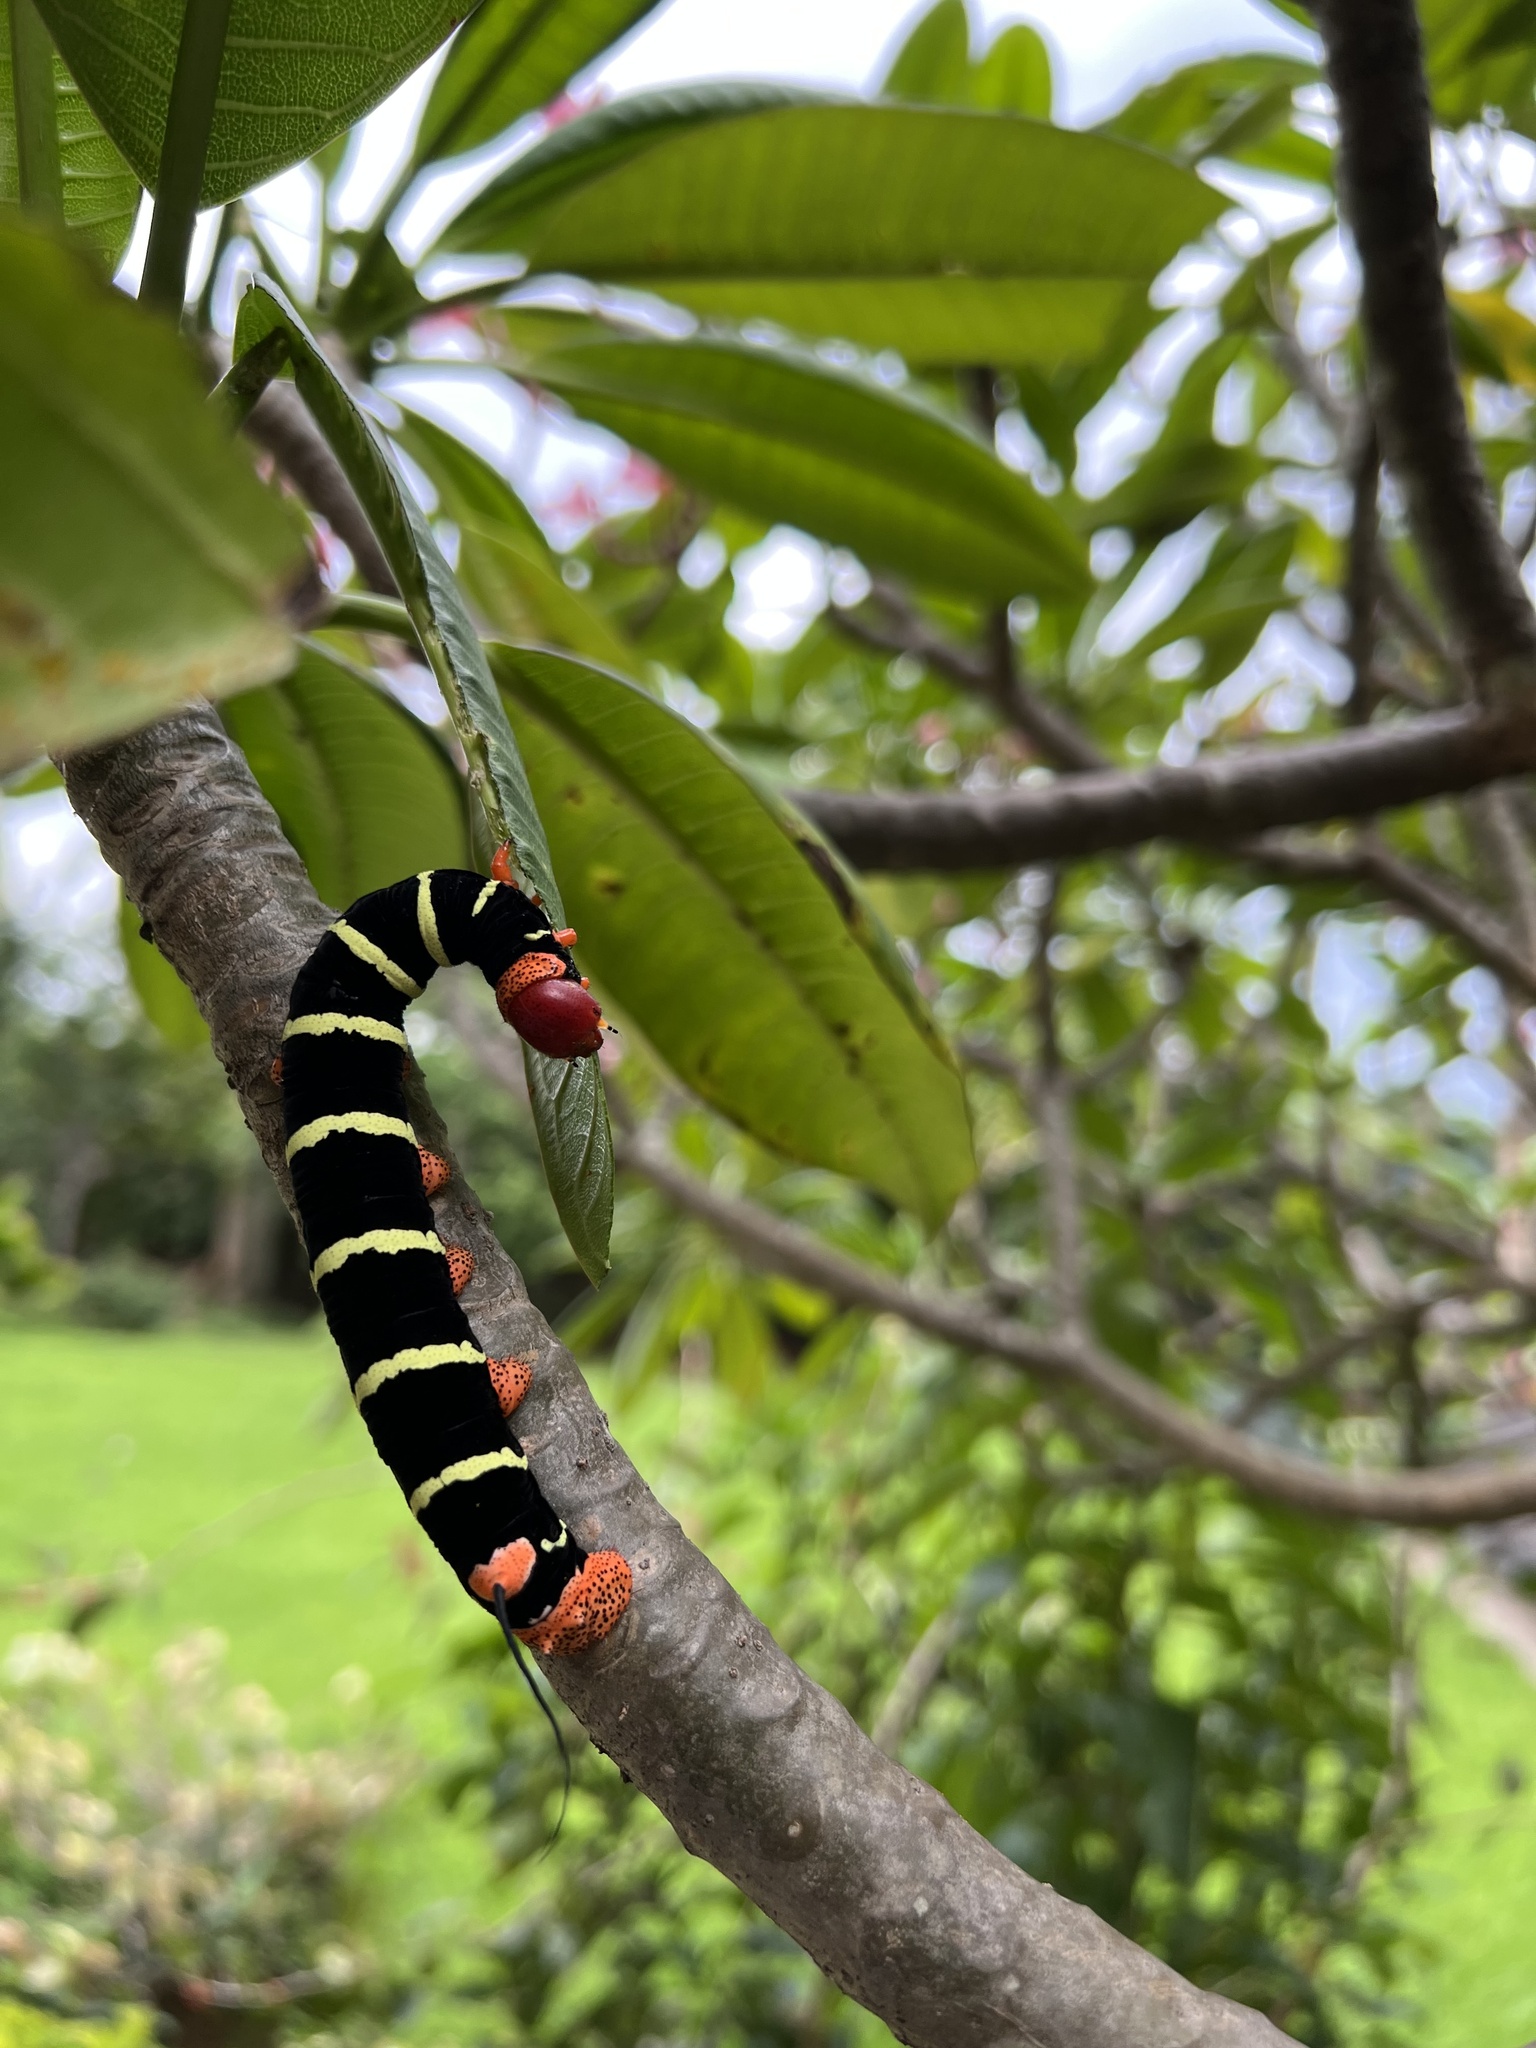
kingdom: Animalia
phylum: Arthropoda
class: Insecta
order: Lepidoptera
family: Sphingidae
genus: Pseudosphinx
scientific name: Pseudosphinx tetrio
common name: Tetrio sphinx
